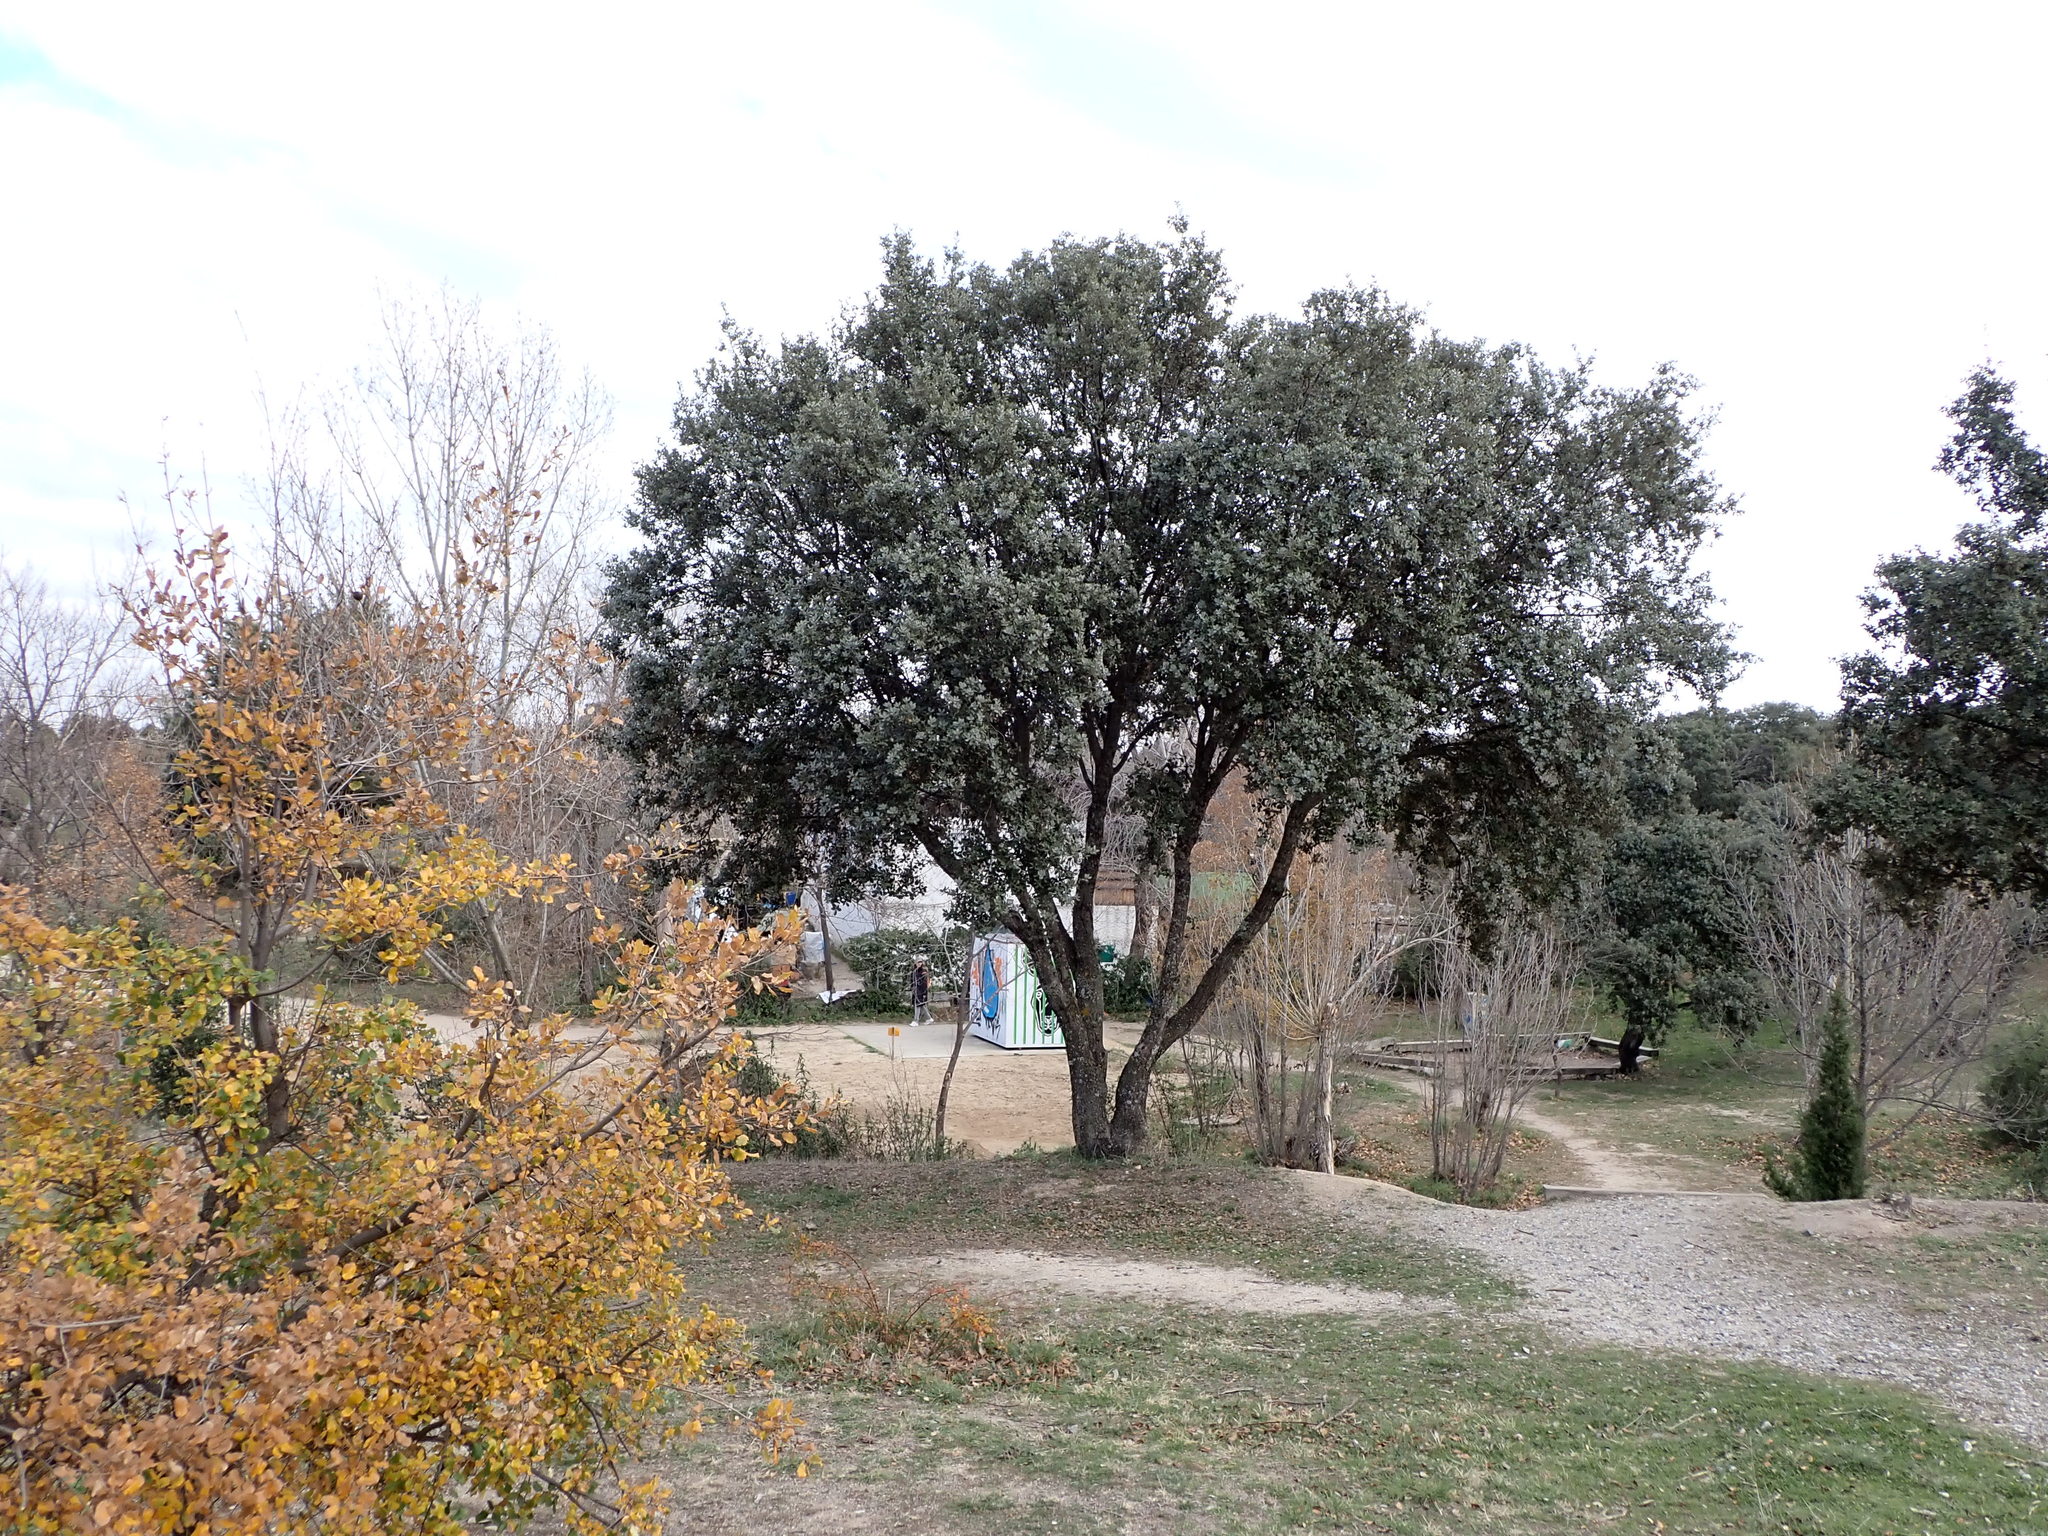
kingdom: Plantae
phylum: Tracheophyta
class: Magnoliopsida
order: Fagales
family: Fagaceae
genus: Quercus
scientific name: Quercus rotundifolia
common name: Holm oak
